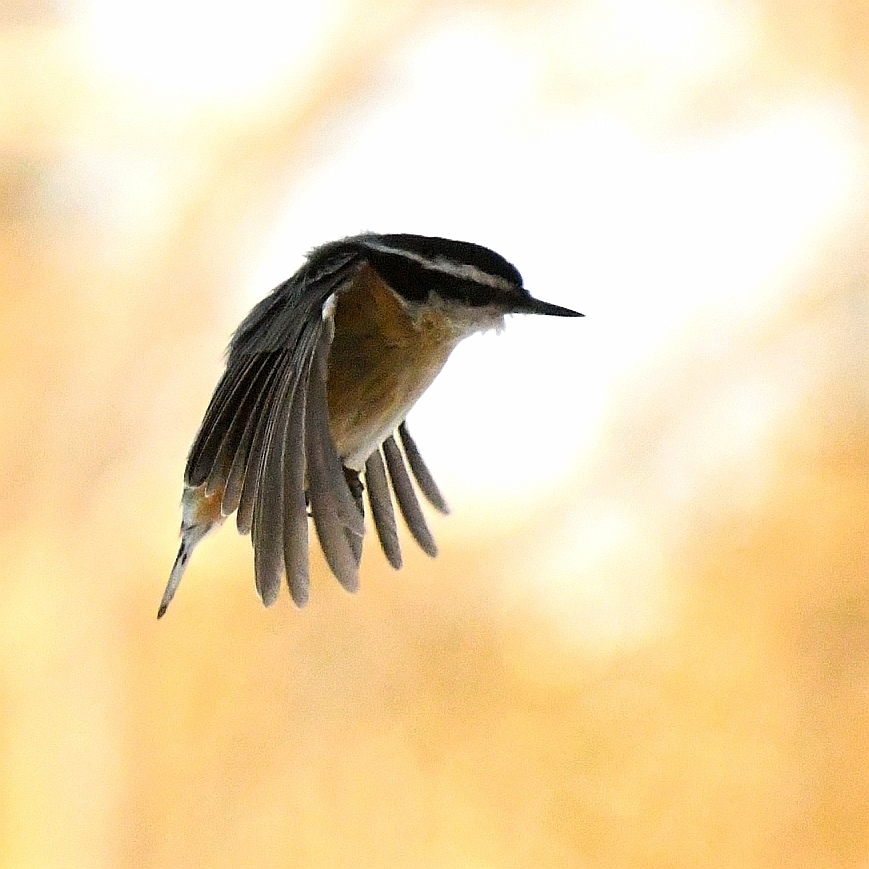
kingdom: Animalia
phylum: Chordata
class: Aves
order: Passeriformes
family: Sittidae
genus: Sitta
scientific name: Sitta canadensis
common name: Red-breasted nuthatch
